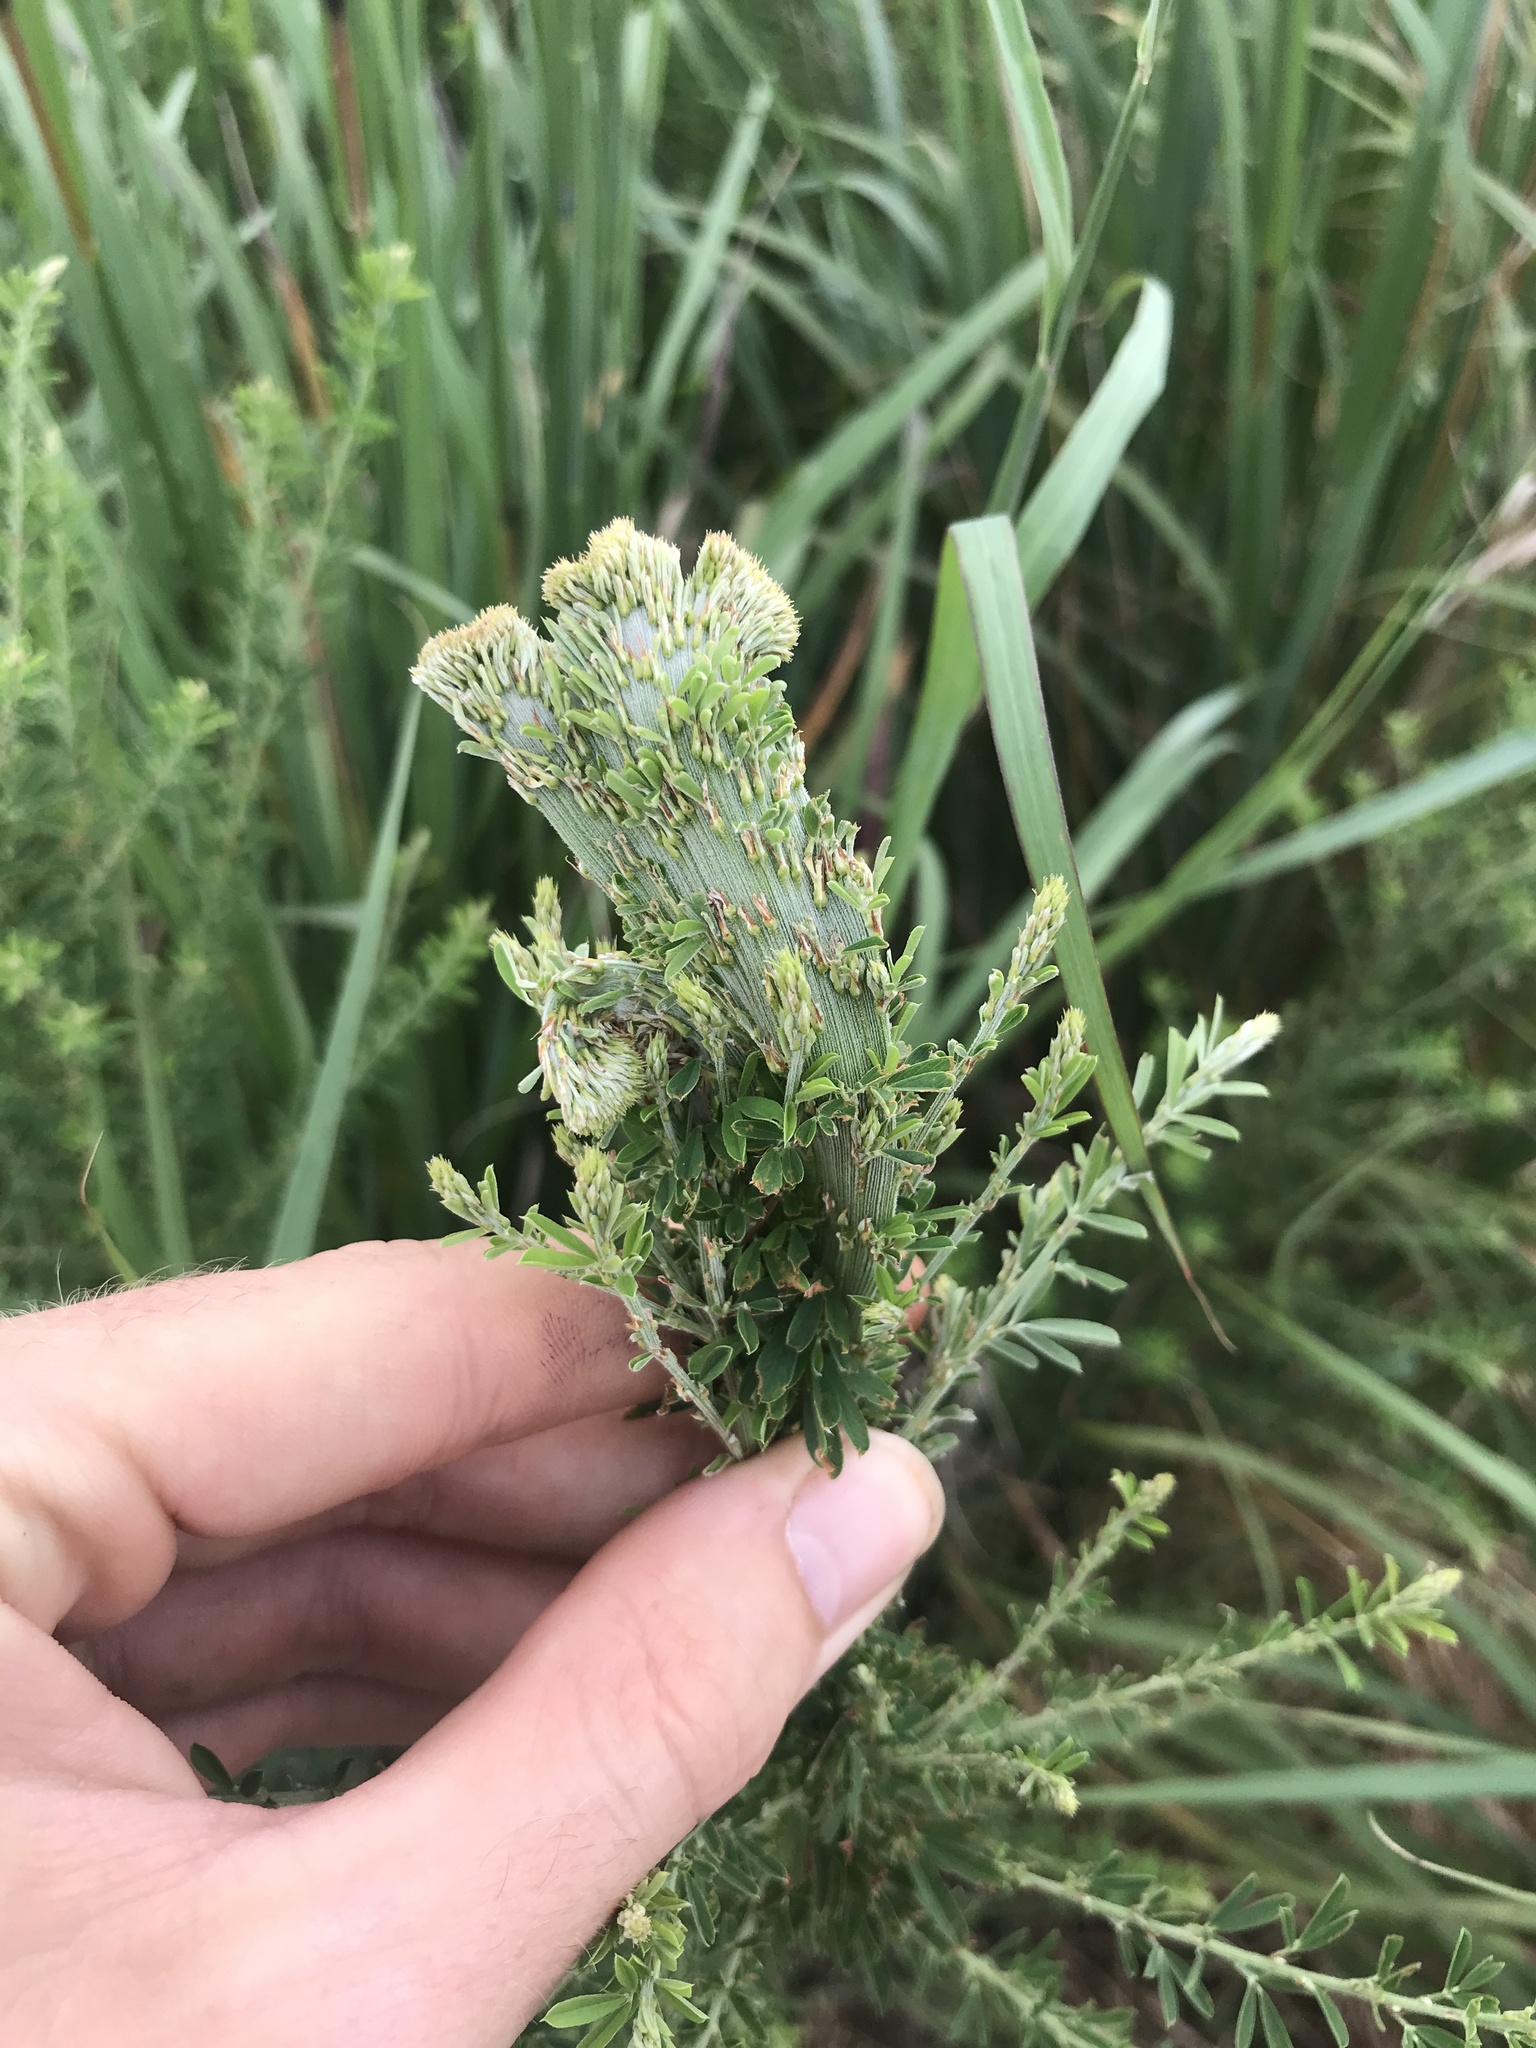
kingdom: Plantae
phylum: Tracheophyta
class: Magnoliopsida
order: Fabales
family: Fabaceae
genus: Lespedeza
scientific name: Lespedeza cuneata
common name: Chinese bush-clover
